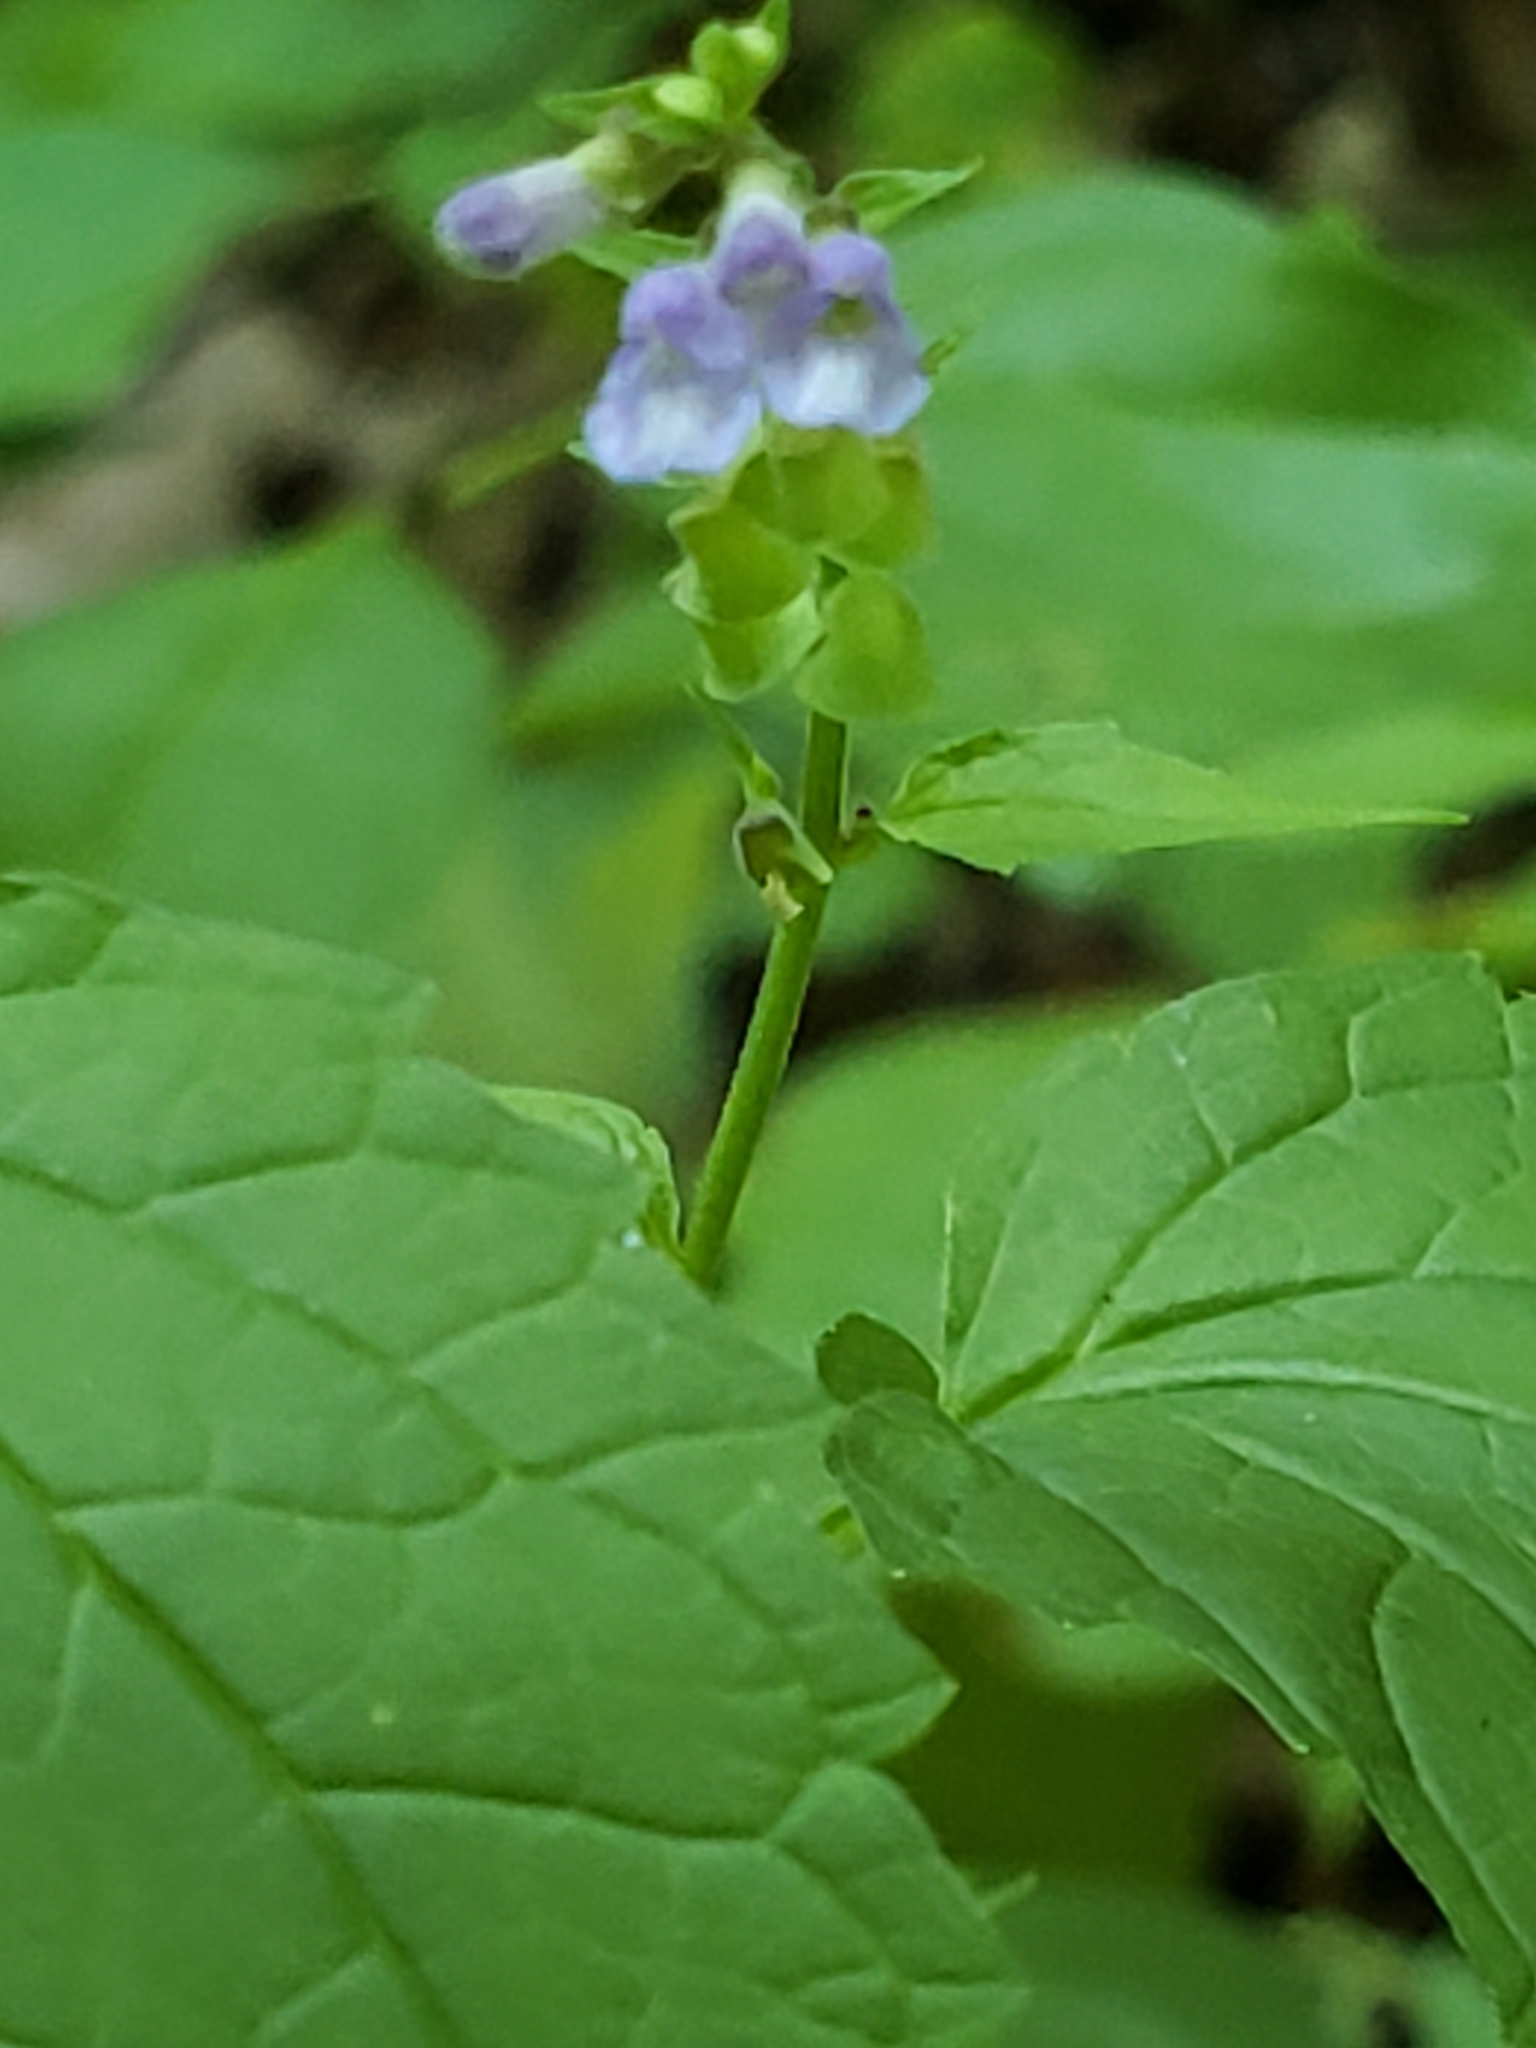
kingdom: Plantae
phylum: Tracheophyta
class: Magnoliopsida
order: Lamiales
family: Lamiaceae
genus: Scutellaria
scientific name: Scutellaria lateriflora
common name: Blue skullcap
